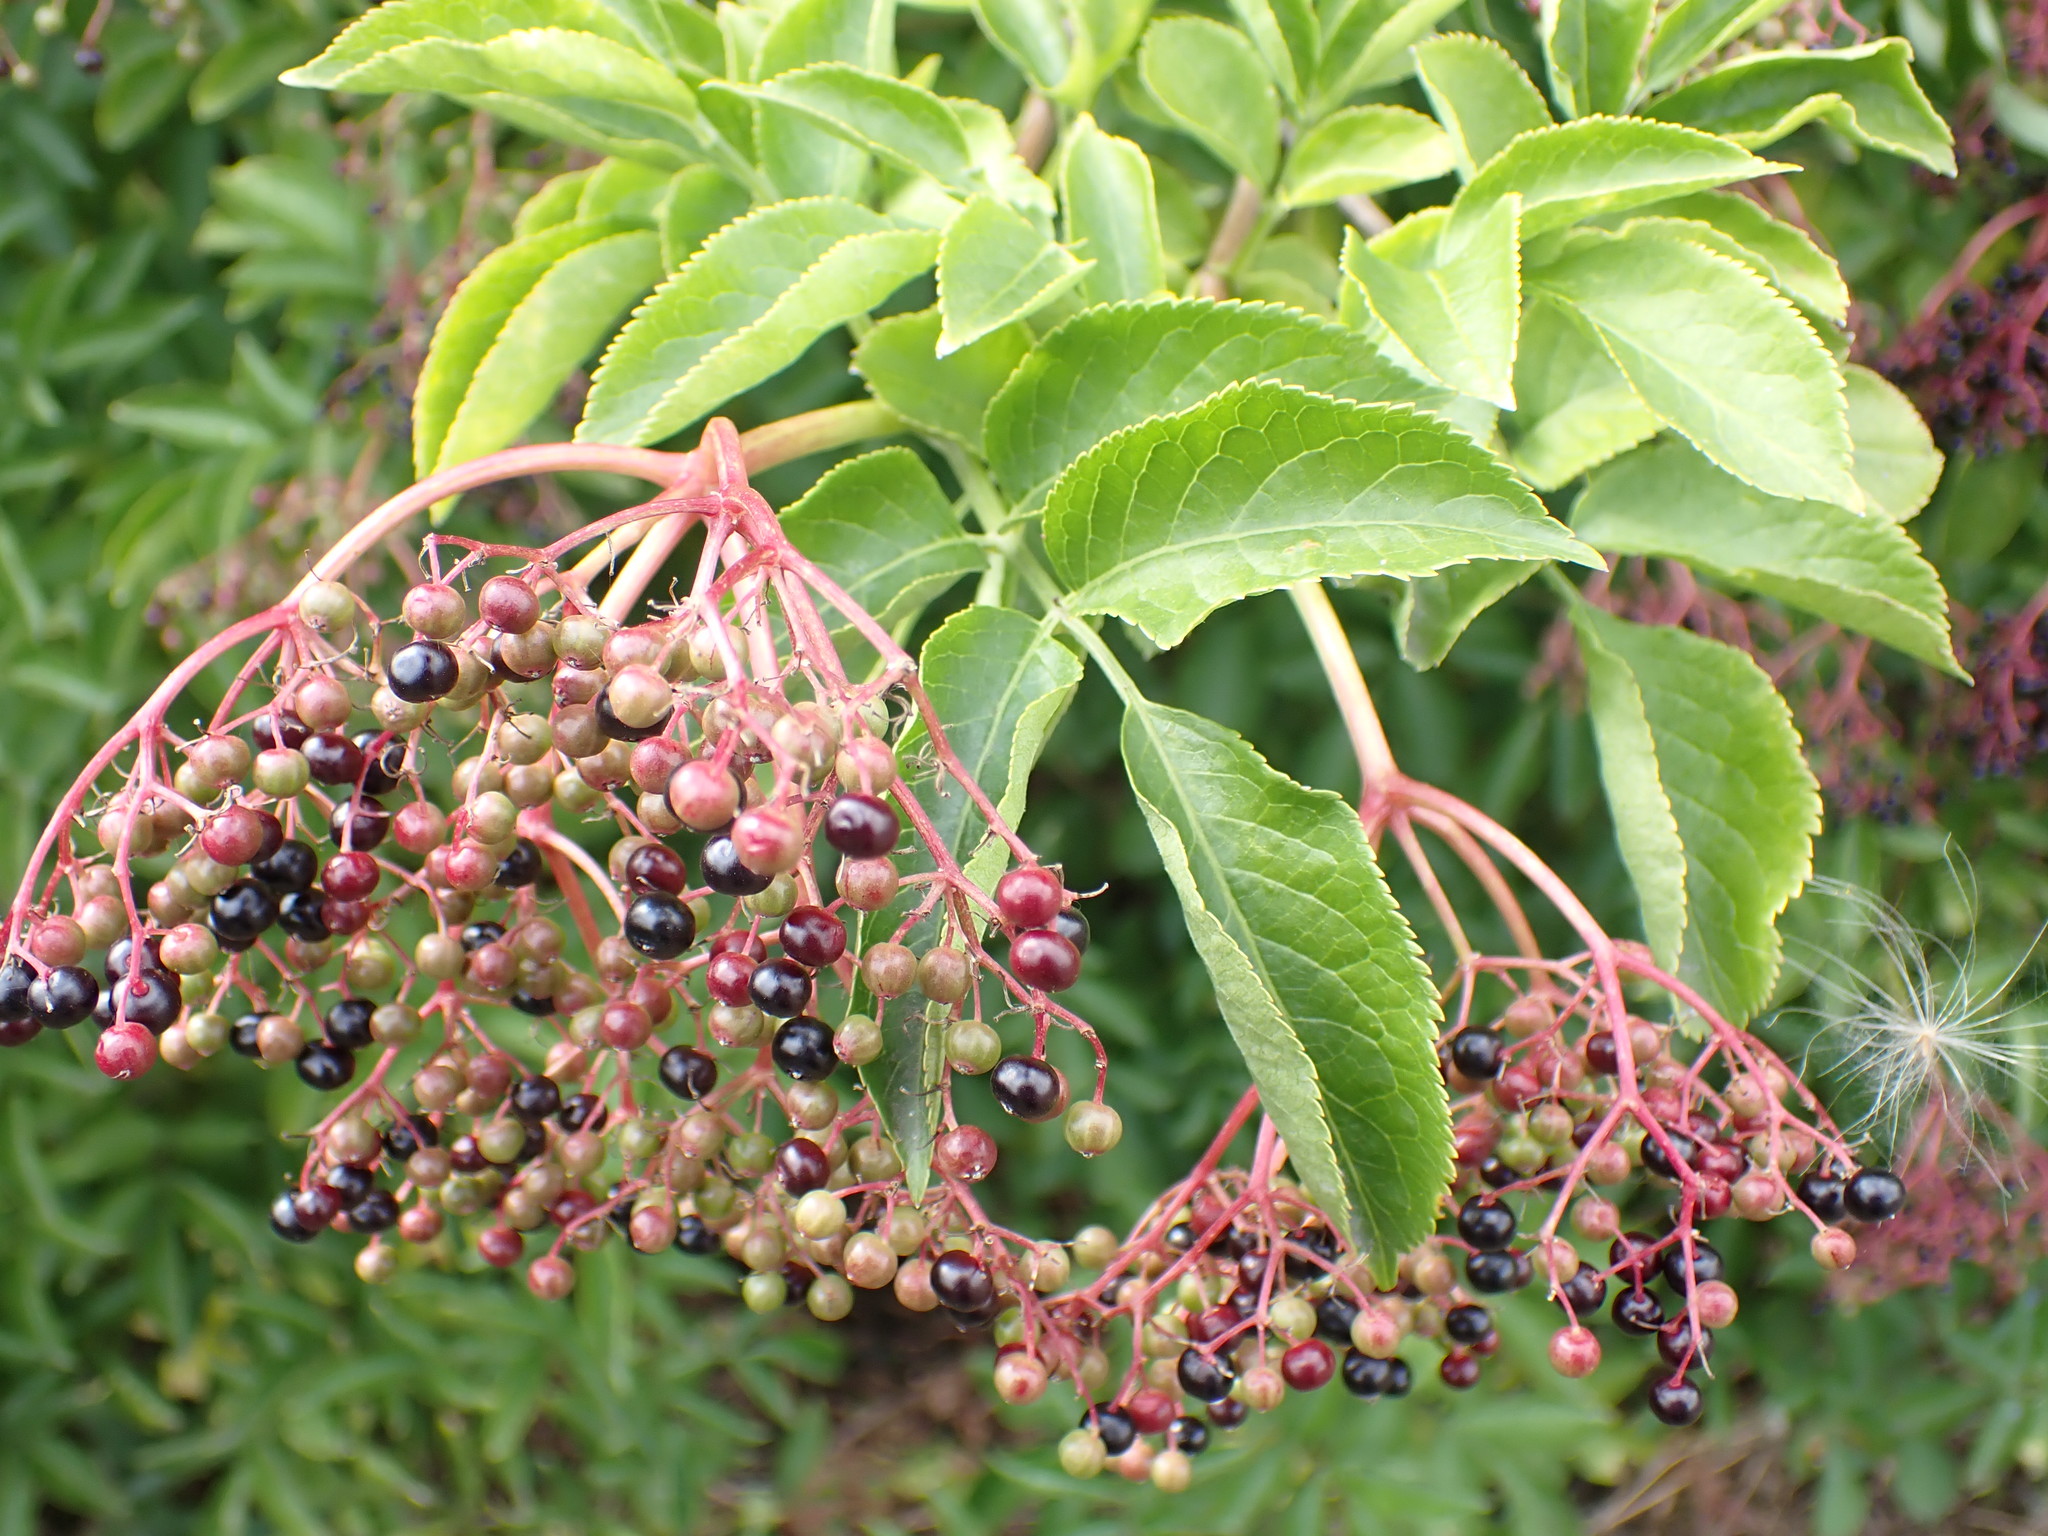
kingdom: Plantae
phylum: Tracheophyta
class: Magnoliopsida
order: Dipsacales
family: Viburnaceae
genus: Sambucus
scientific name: Sambucus nigra
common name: Elder
